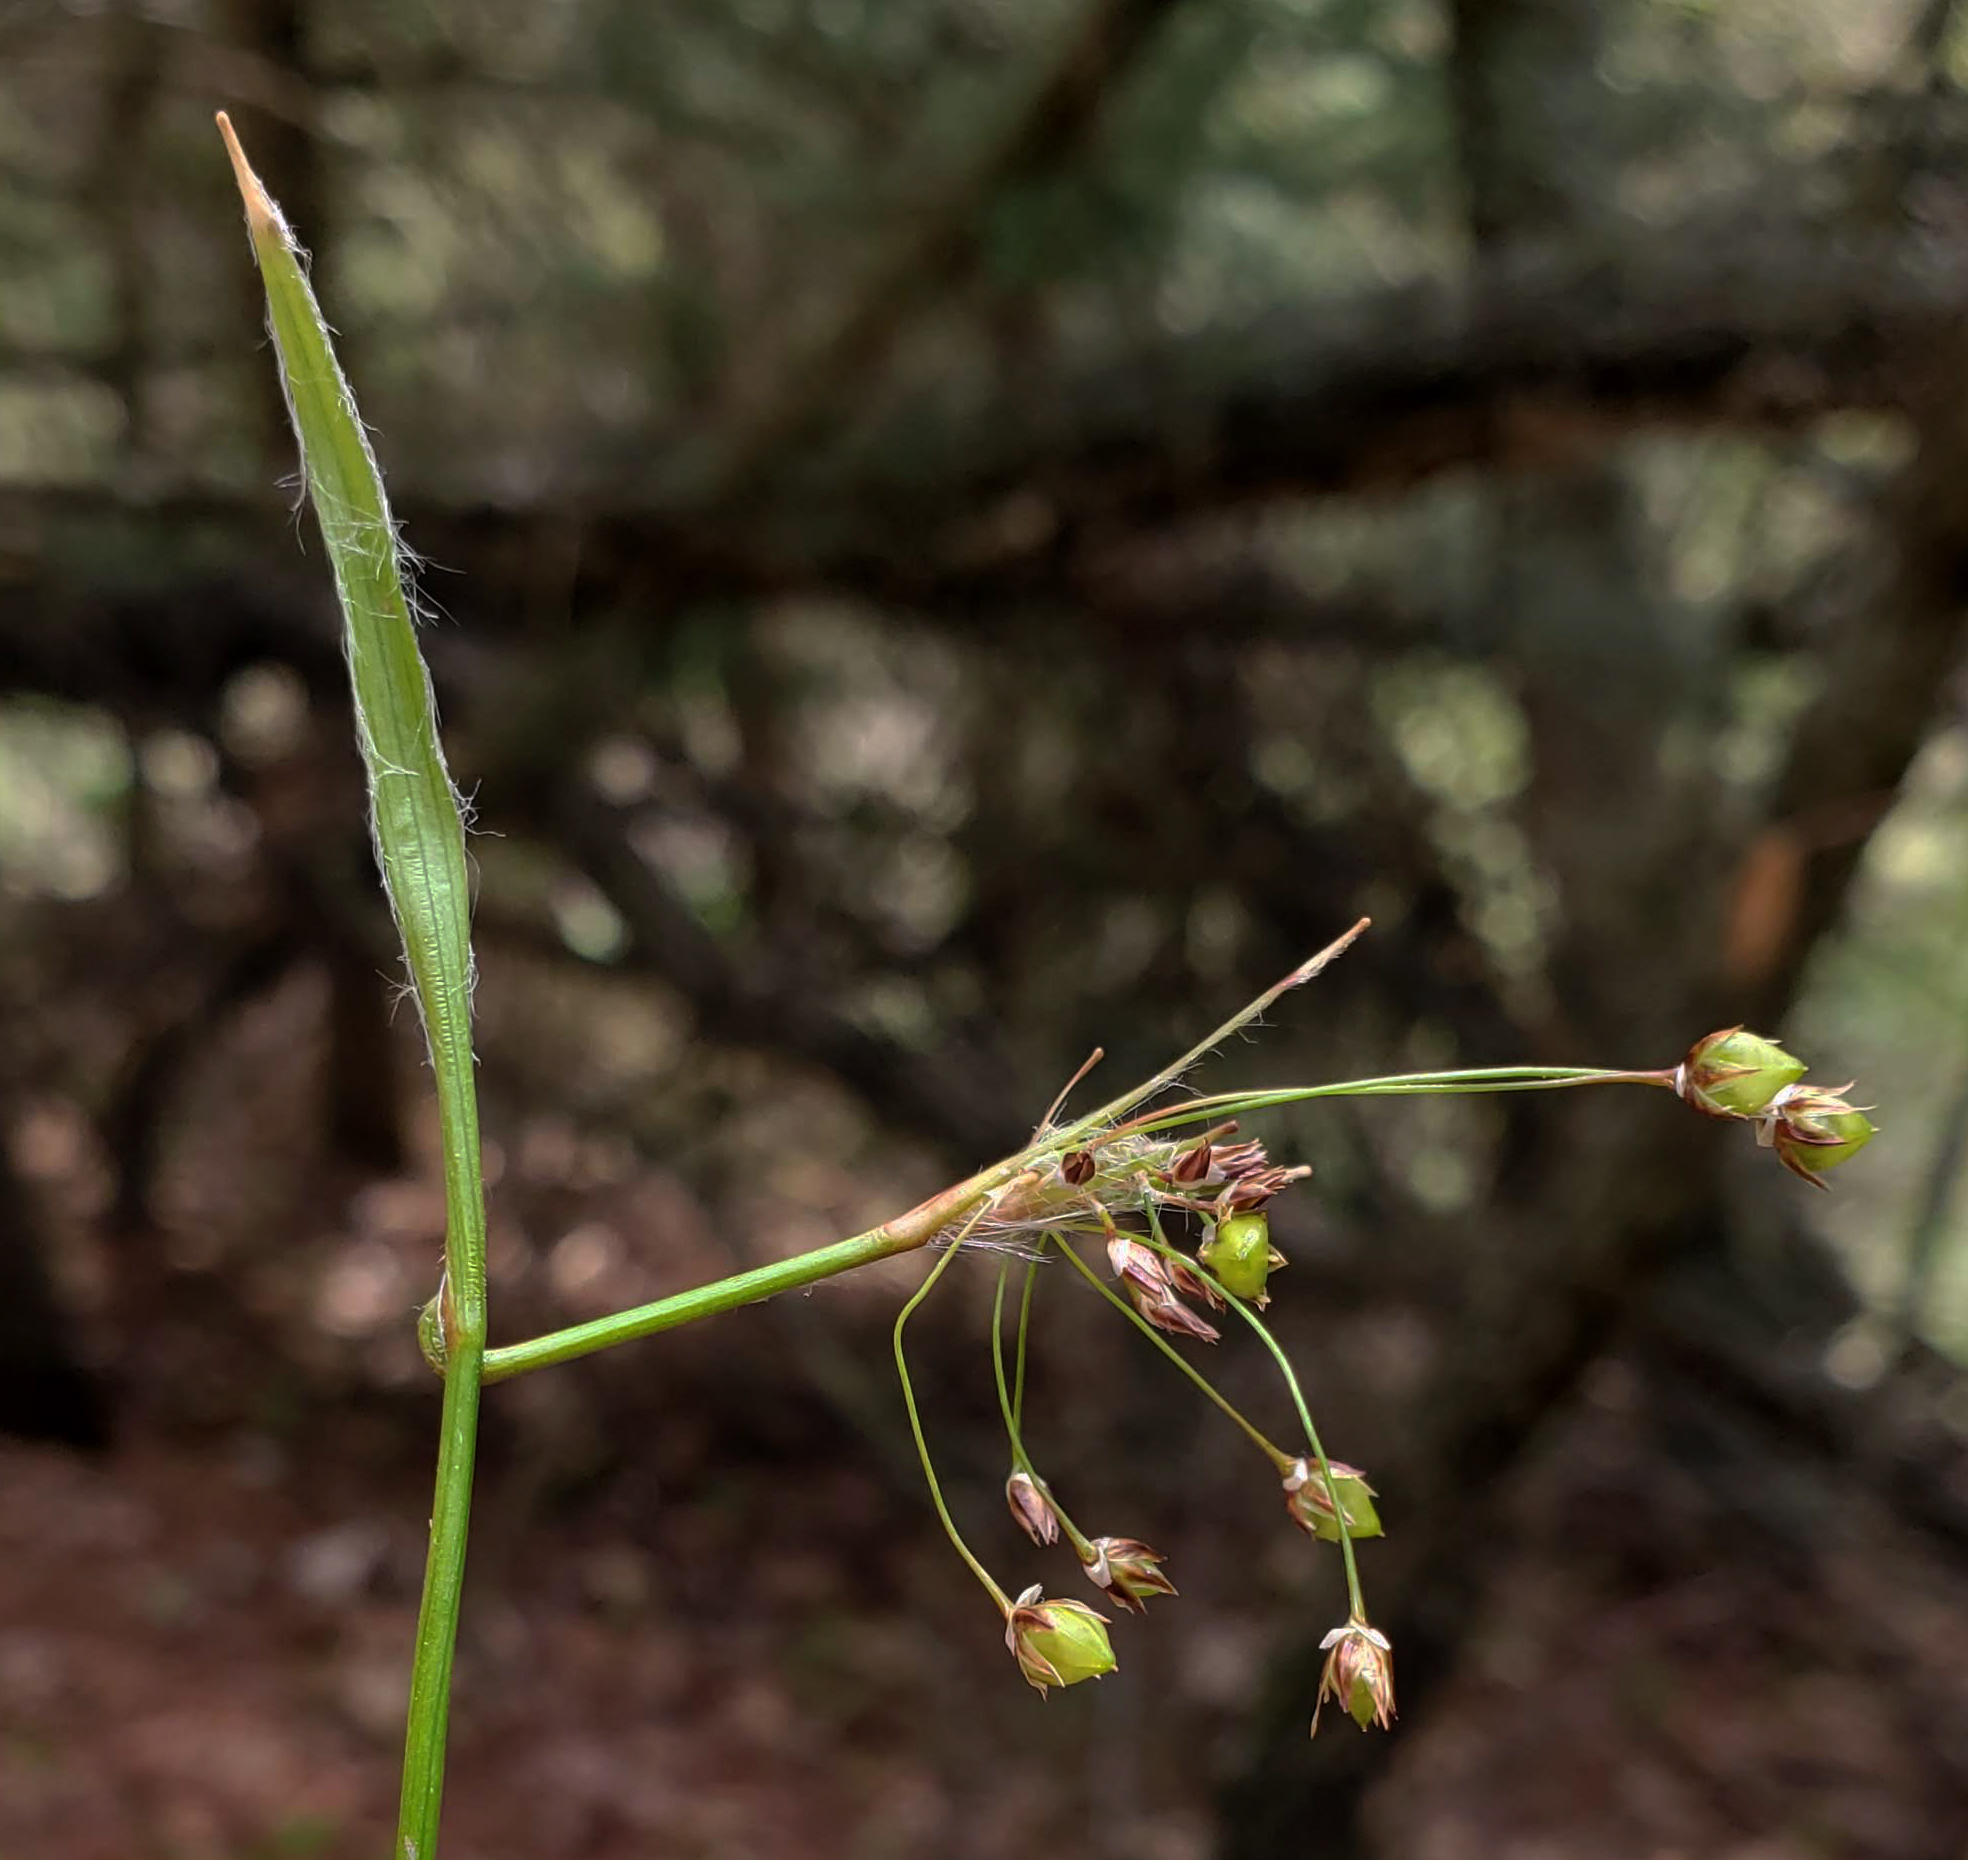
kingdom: Plantae
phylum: Tracheophyta
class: Liliopsida
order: Poales
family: Juncaceae
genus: Luzula
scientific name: Luzula acuminata
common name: Hairy woodrush
